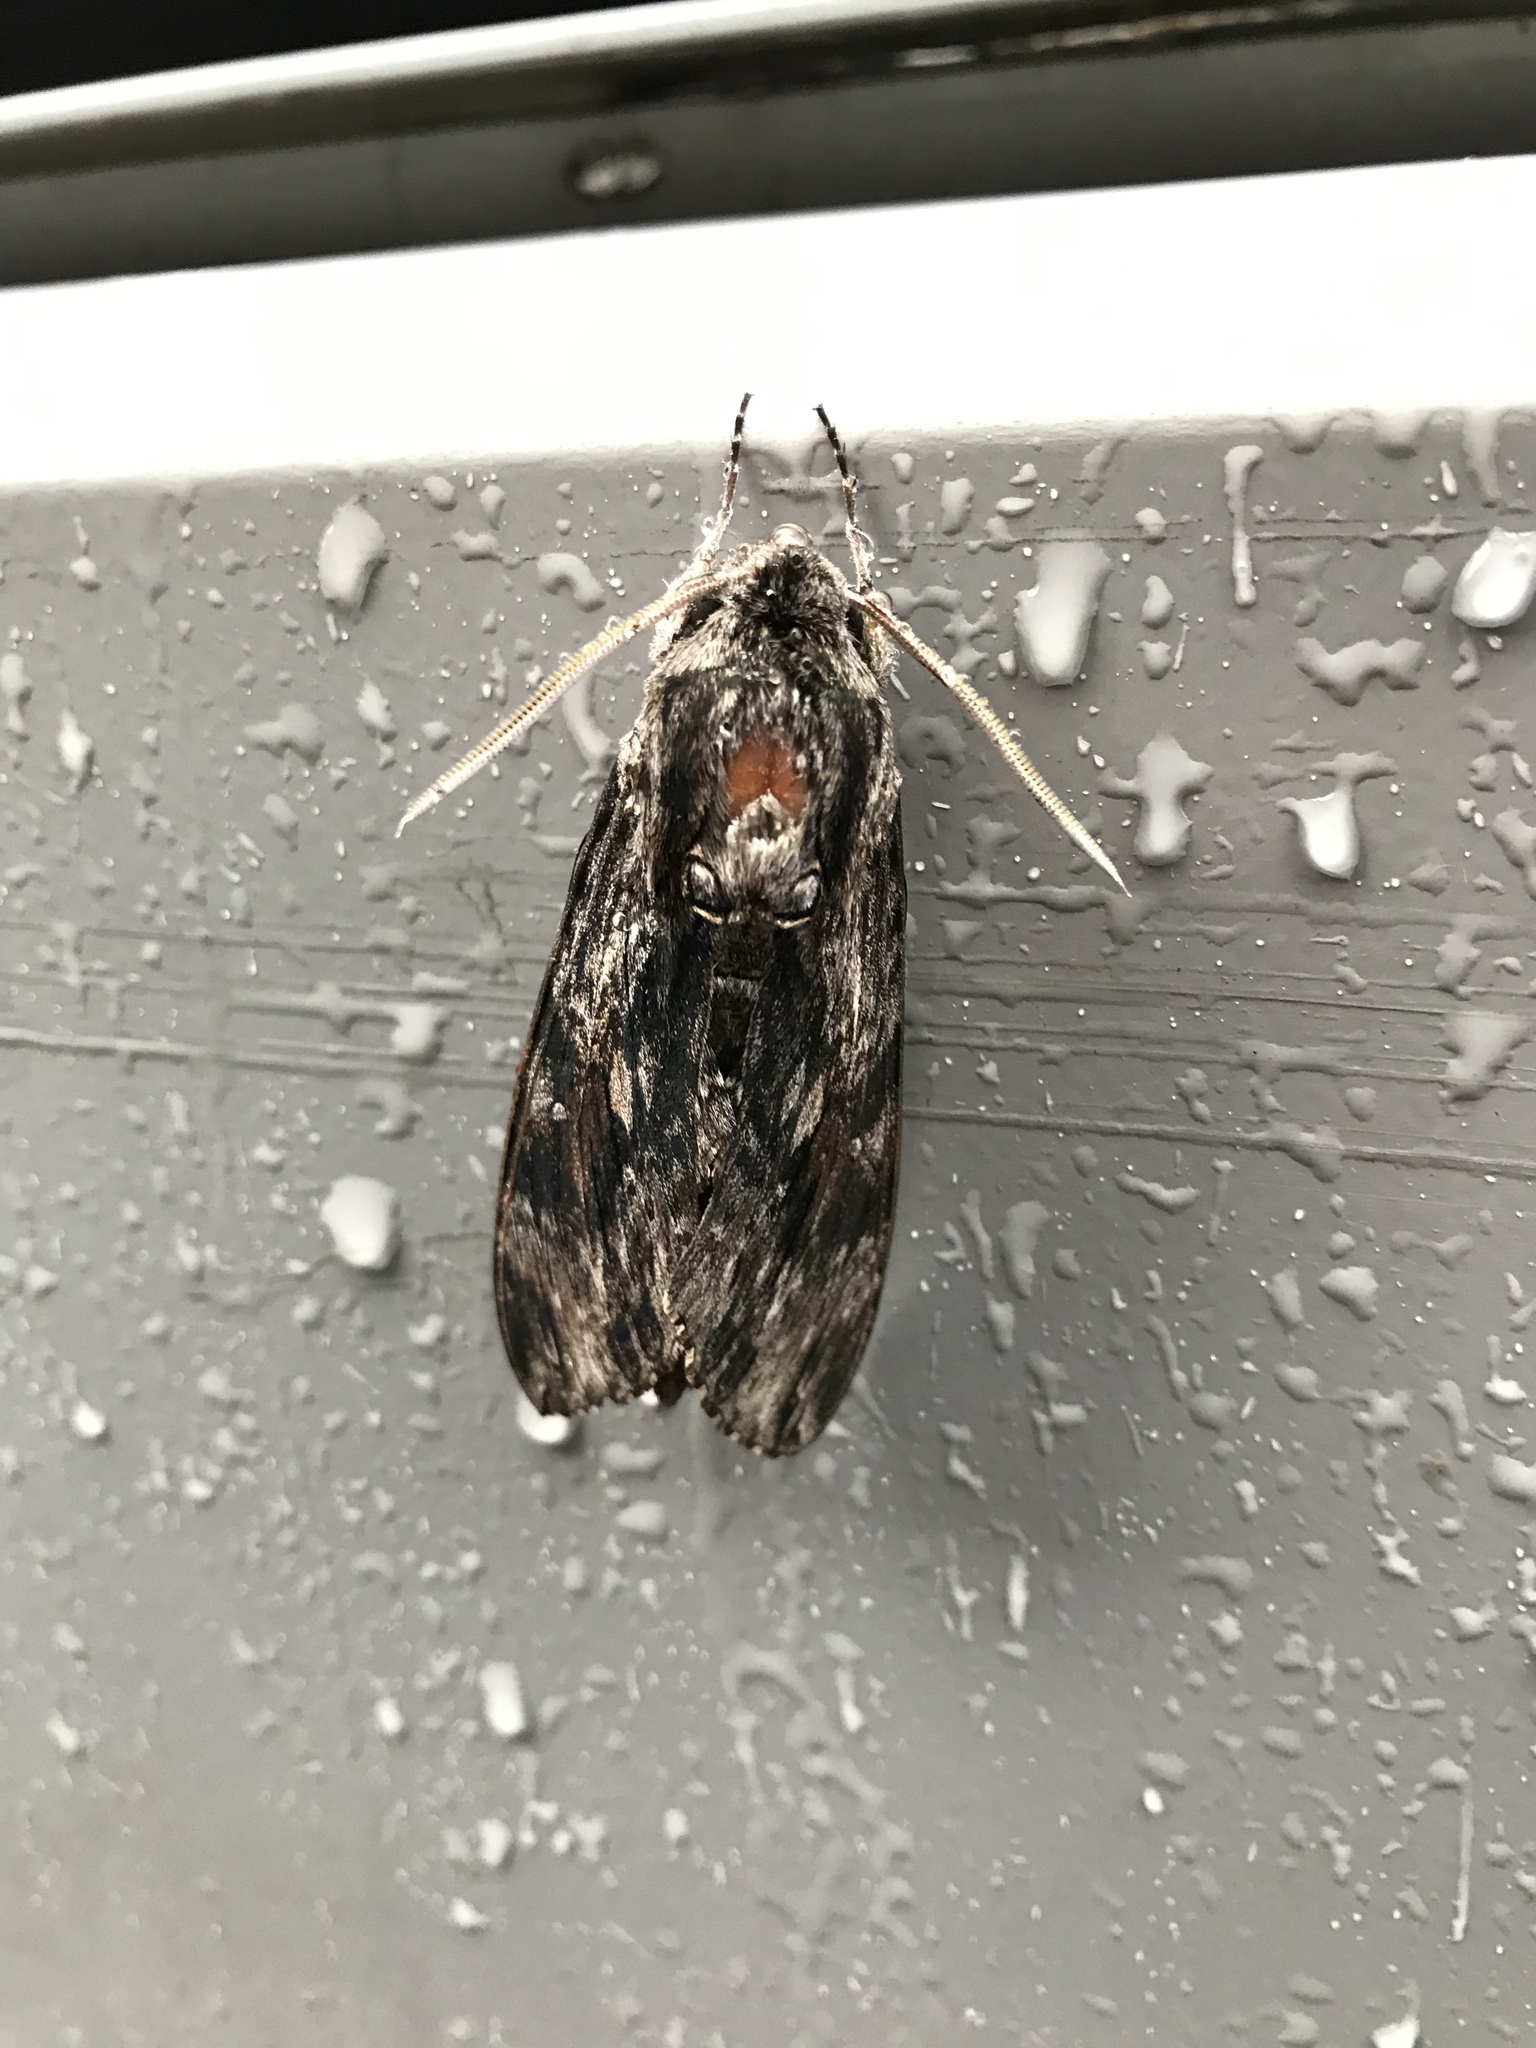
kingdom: Animalia
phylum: Arthropoda
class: Insecta
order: Lepidoptera
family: Sphingidae
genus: Agrius
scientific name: Agrius convolvuli
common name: Convolvulus hawkmoth
